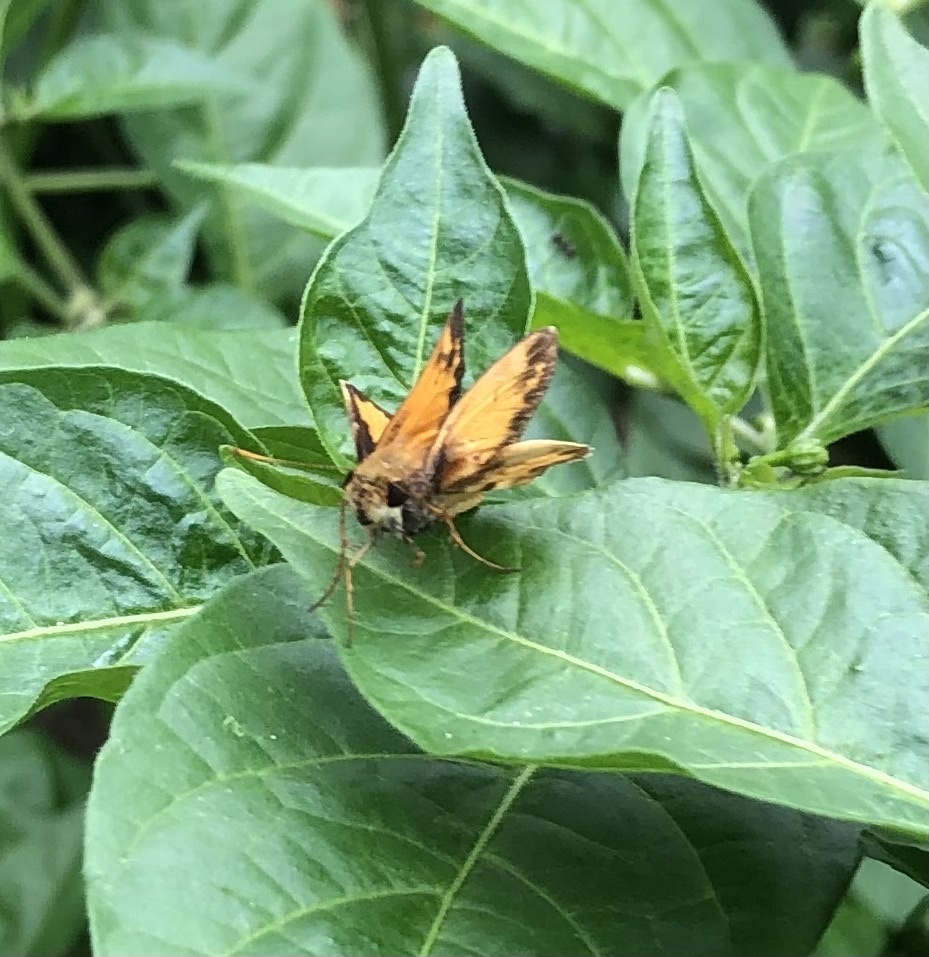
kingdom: Animalia
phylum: Arthropoda
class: Insecta
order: Lepidoptera
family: Hesperiidae
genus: Lon
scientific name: Lon zabulon
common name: Zabulon skipper
